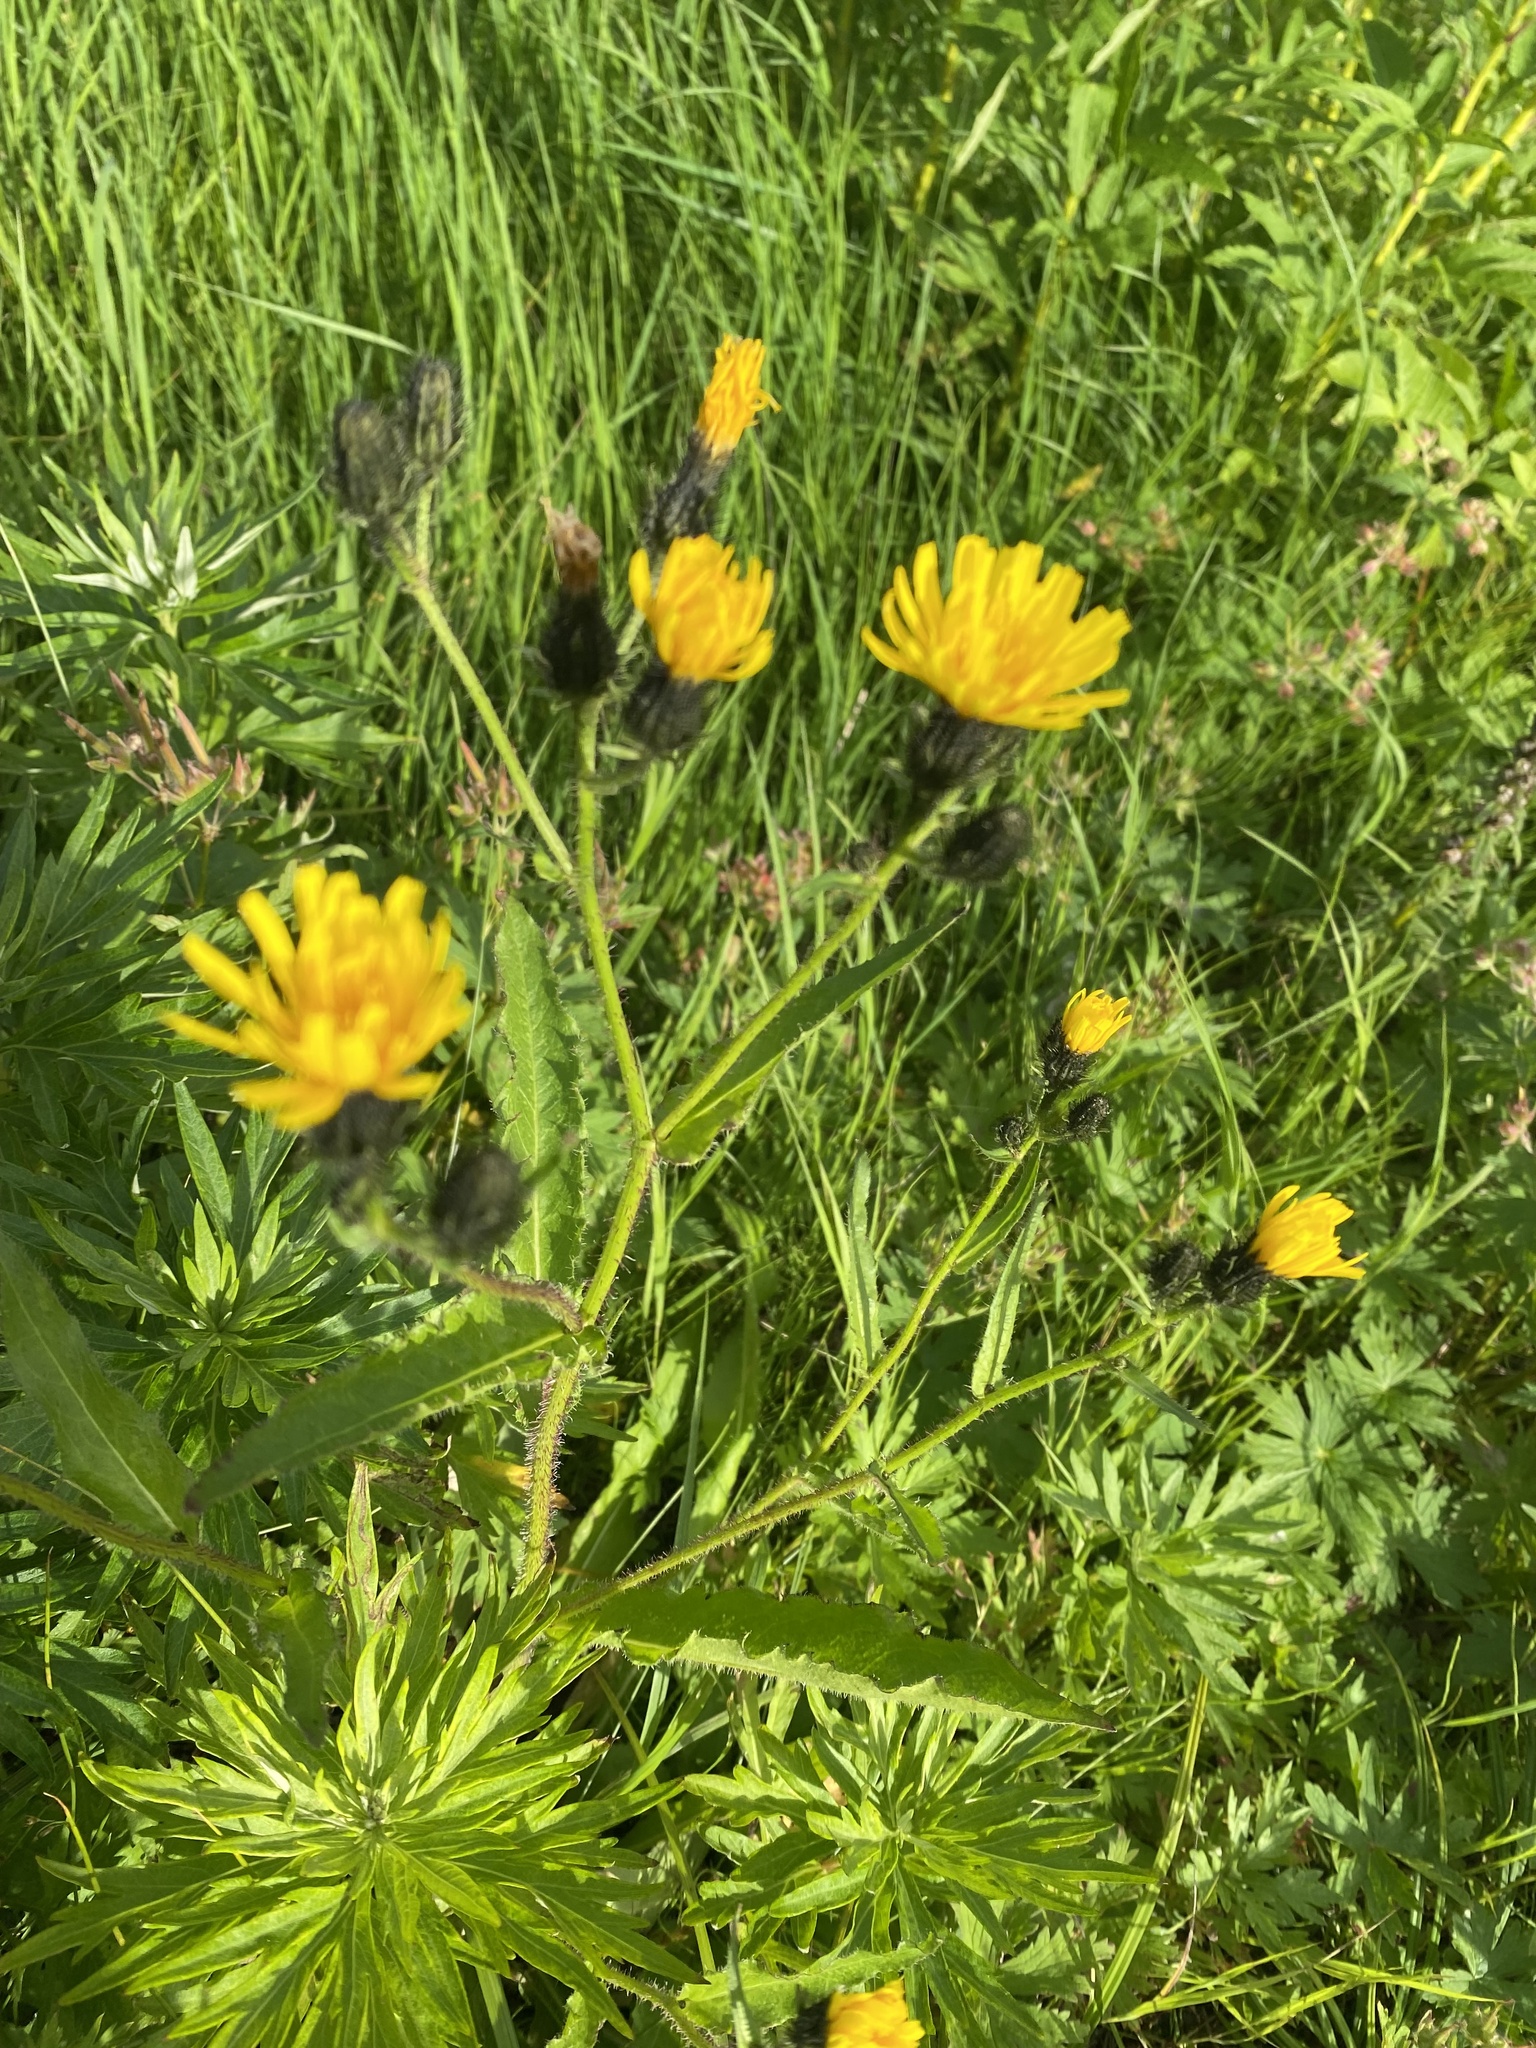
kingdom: Plantae
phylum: Tracheophyta
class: Magnoliopsida
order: Asterales
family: Asteraceae
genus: Picris
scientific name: Picris japonica
